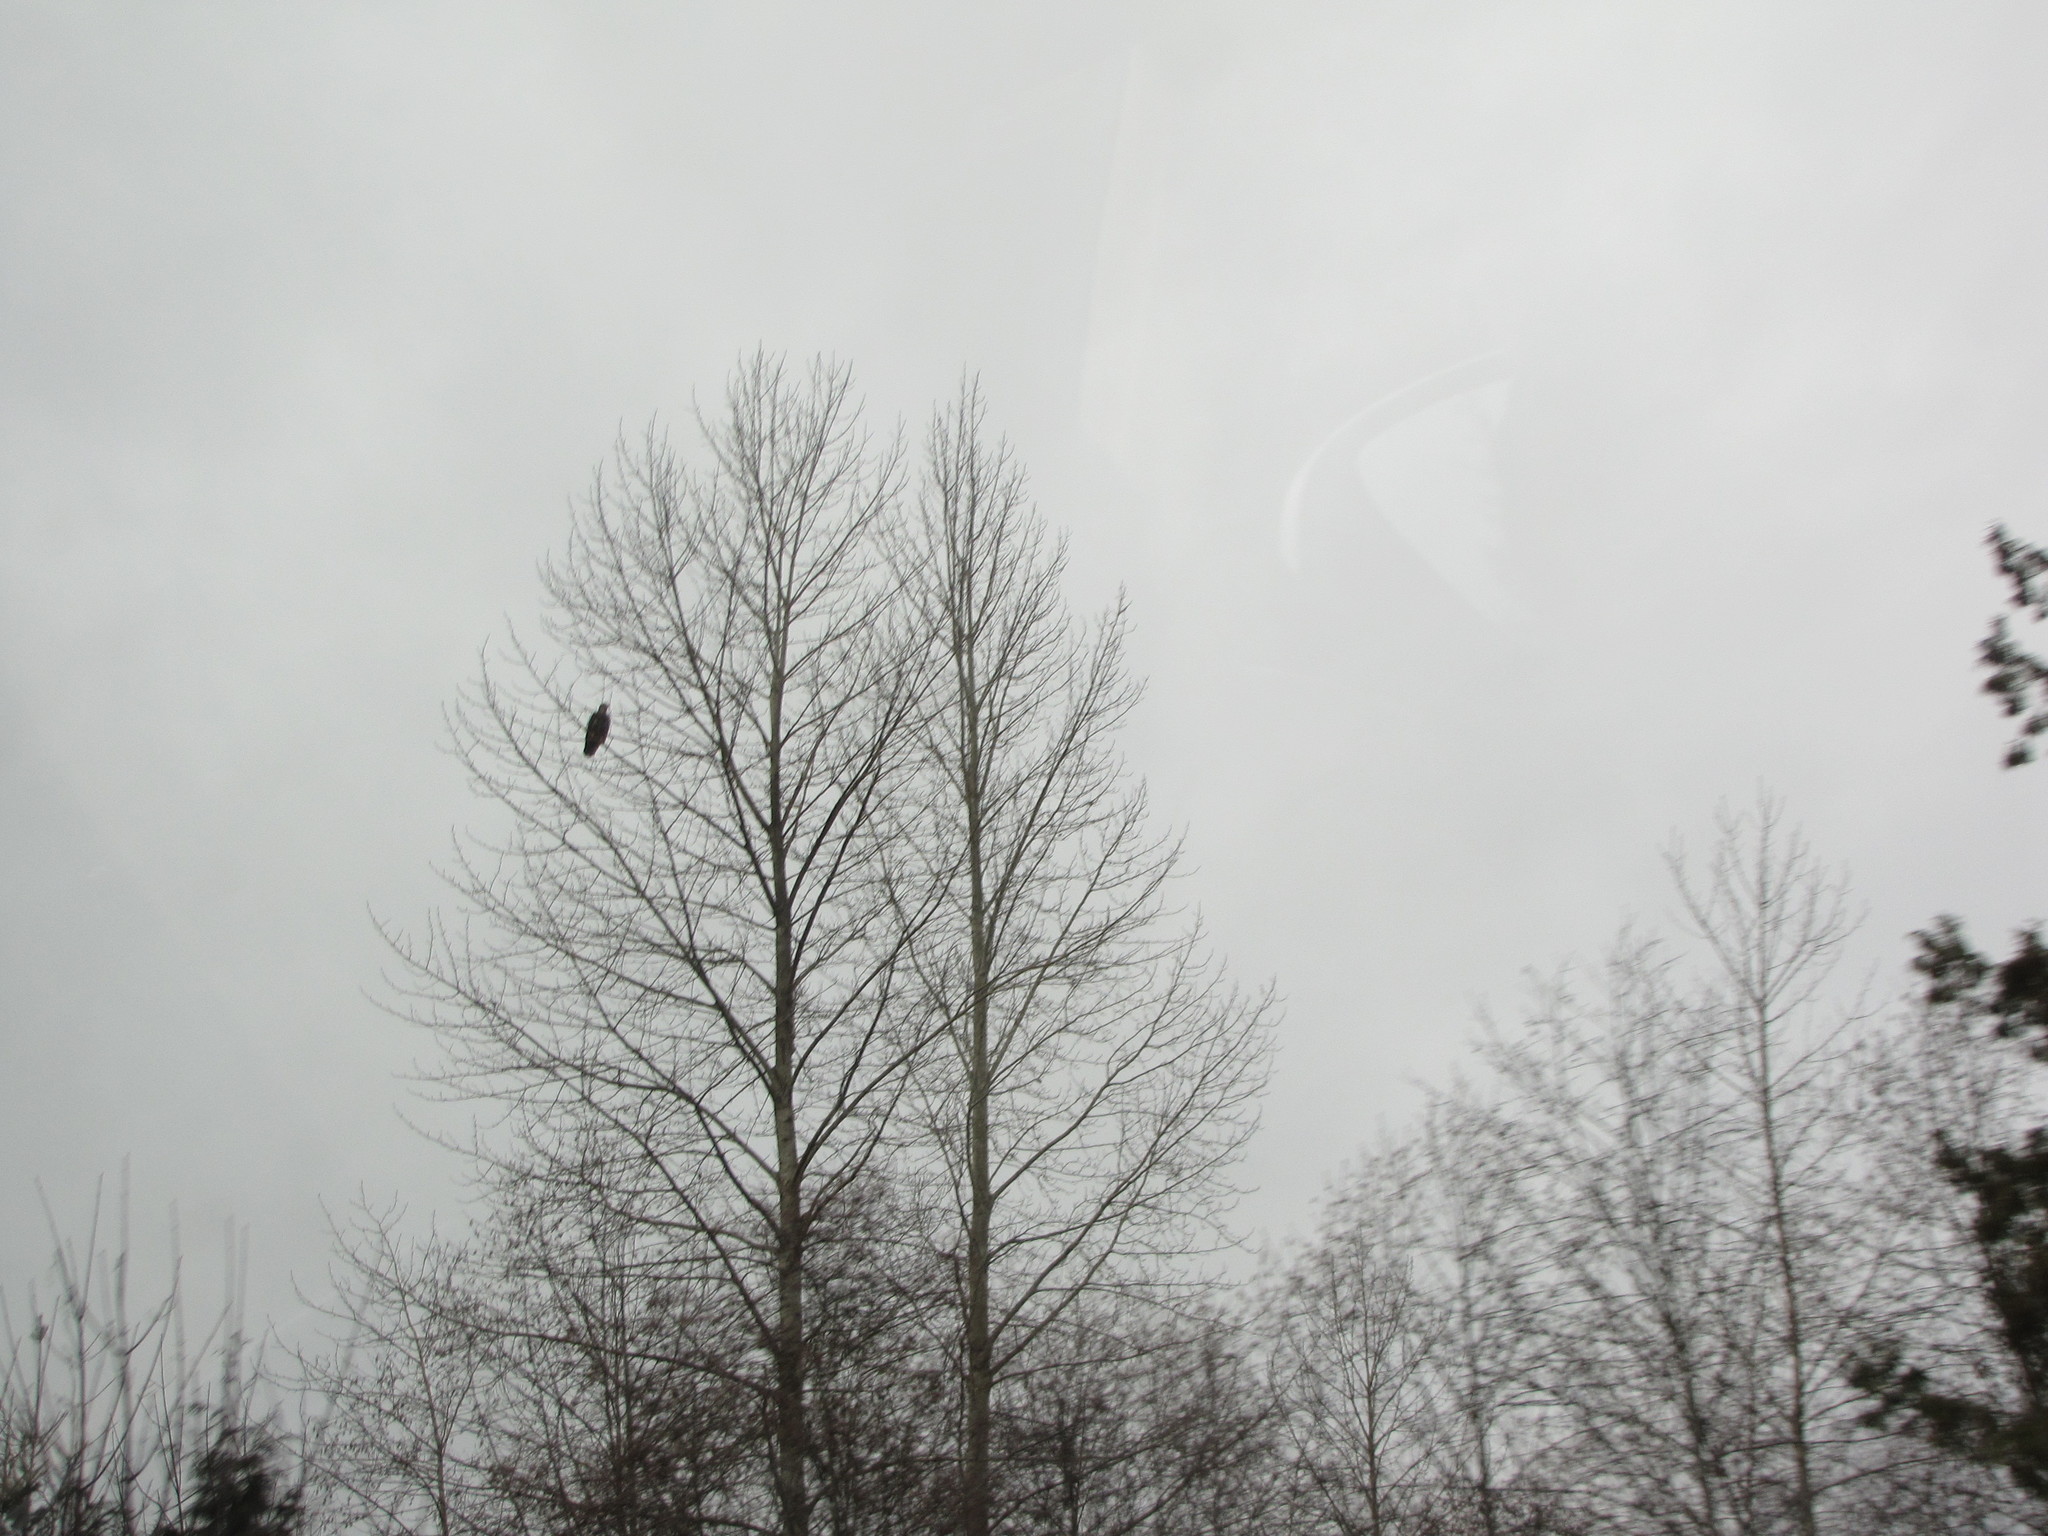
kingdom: Animalia
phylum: Chordata
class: Aves
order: Accipitriformes
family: Accipitridae
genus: Haliaeetus
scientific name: Haliaeetus leucocephalus
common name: Bald eagle
